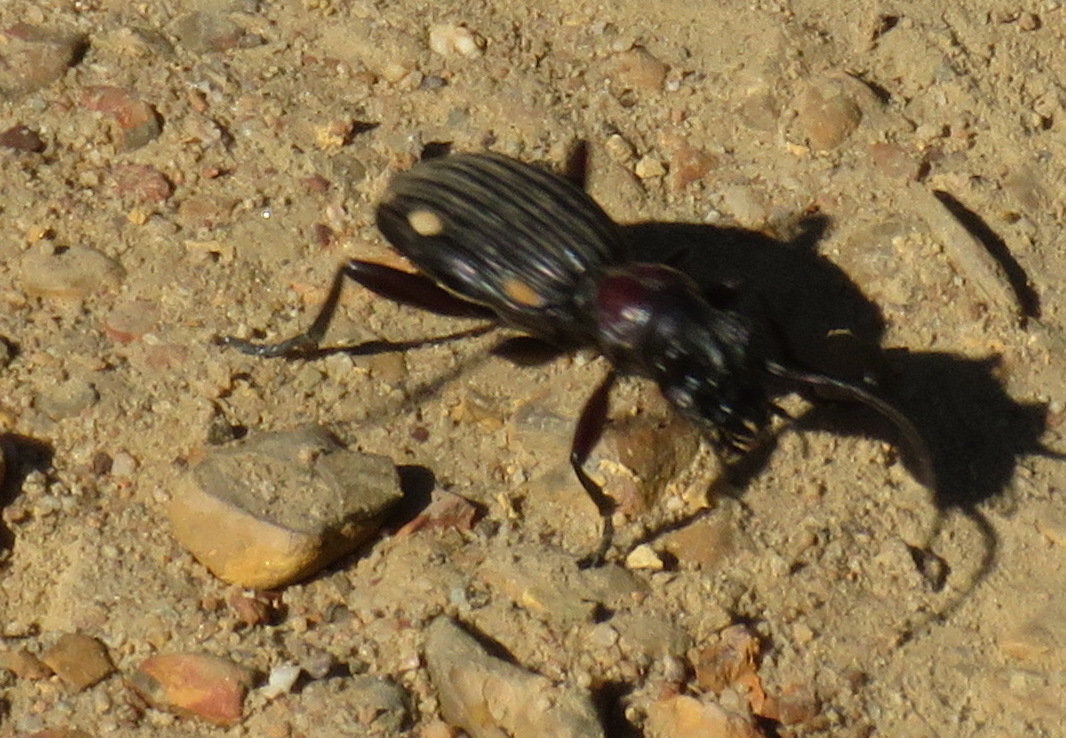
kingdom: Animalia
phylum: Arthropoda
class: Insecta
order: Coleoptera
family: Carabidae
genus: Anthia
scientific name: Anthia decemguttata
